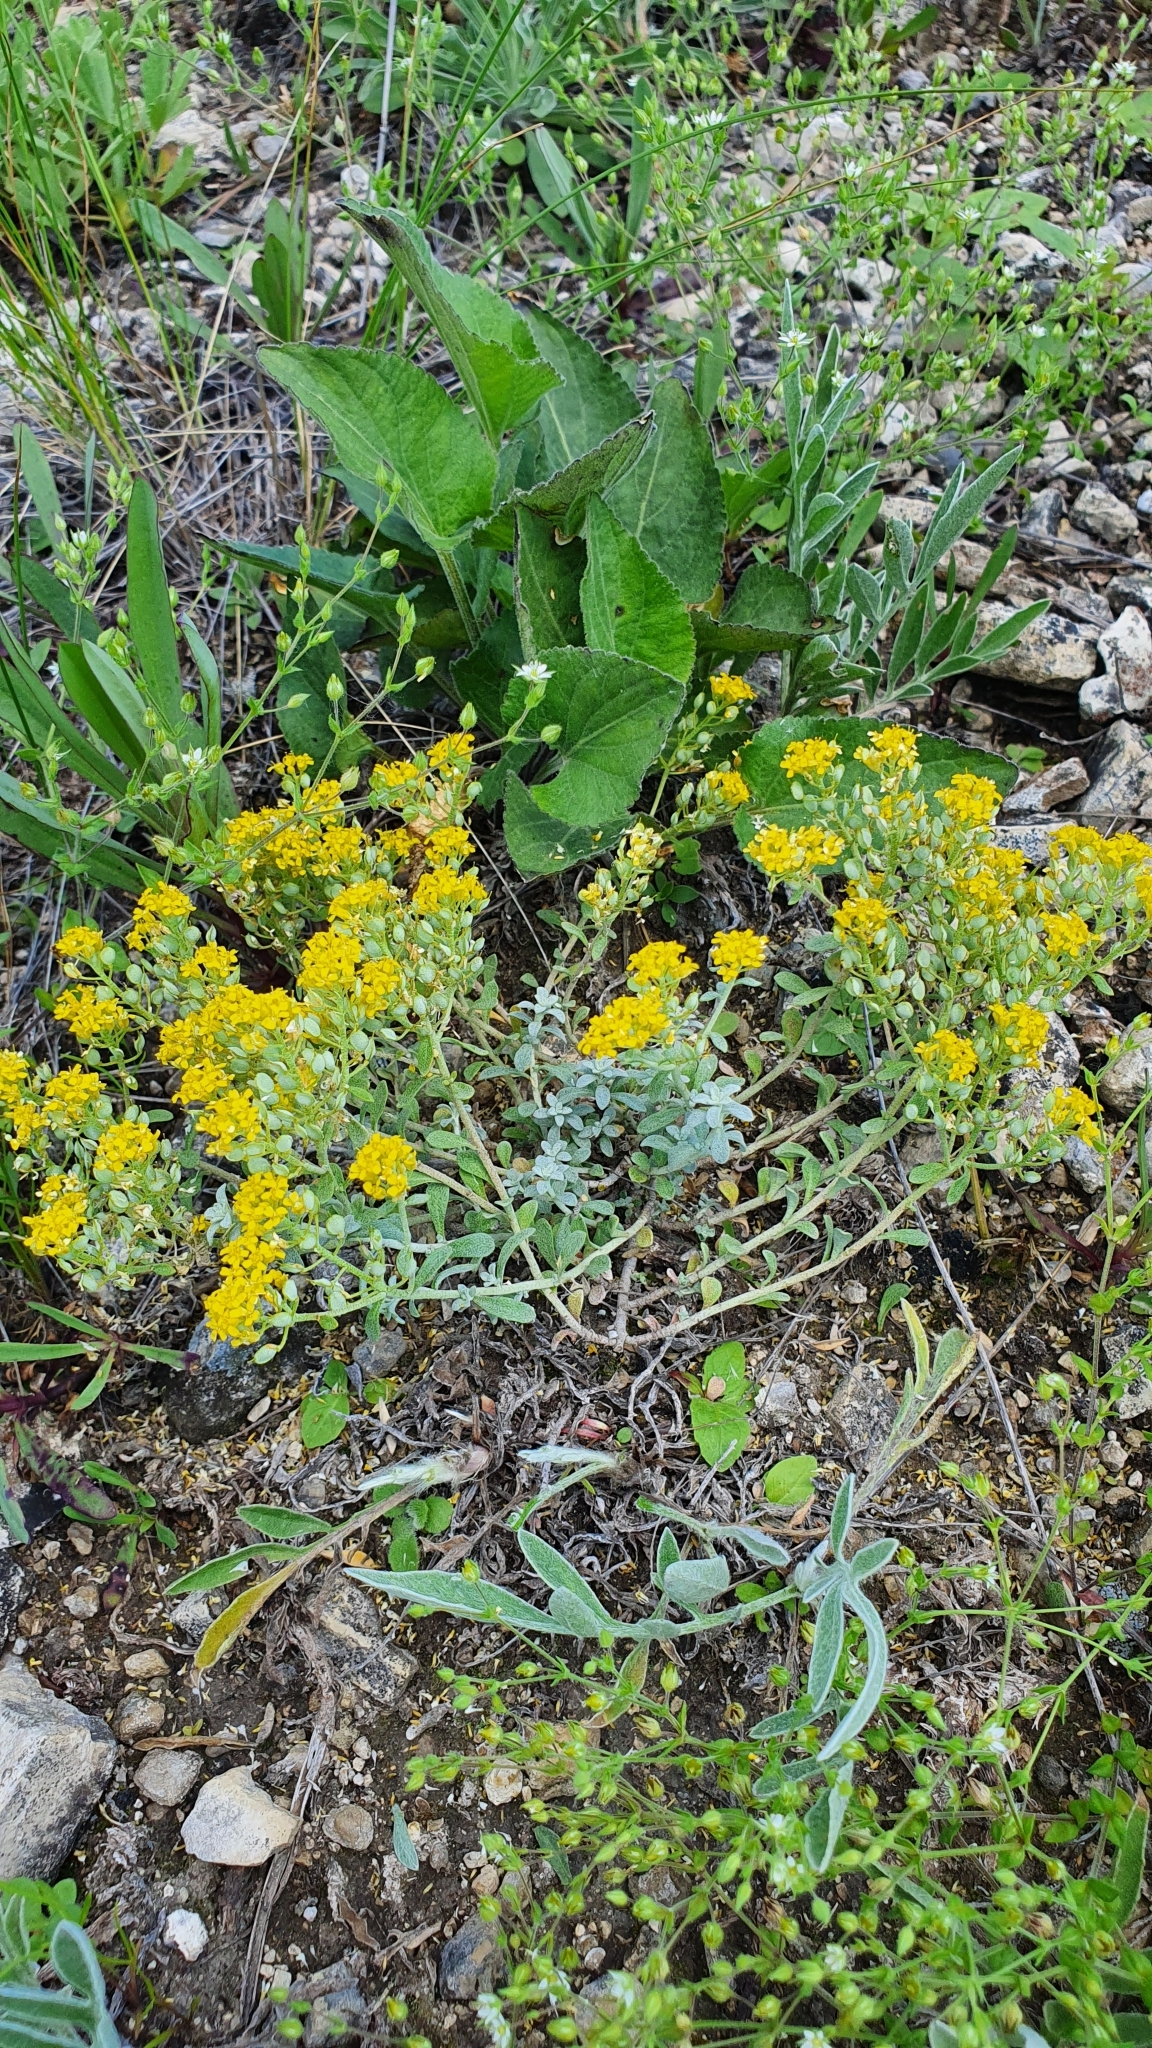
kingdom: Plantae
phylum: Tracheophyta
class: Magnoliopsida
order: Brassicales
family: Brassicaceae
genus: Odontarrhena
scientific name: Odontarrhena tortuosa
